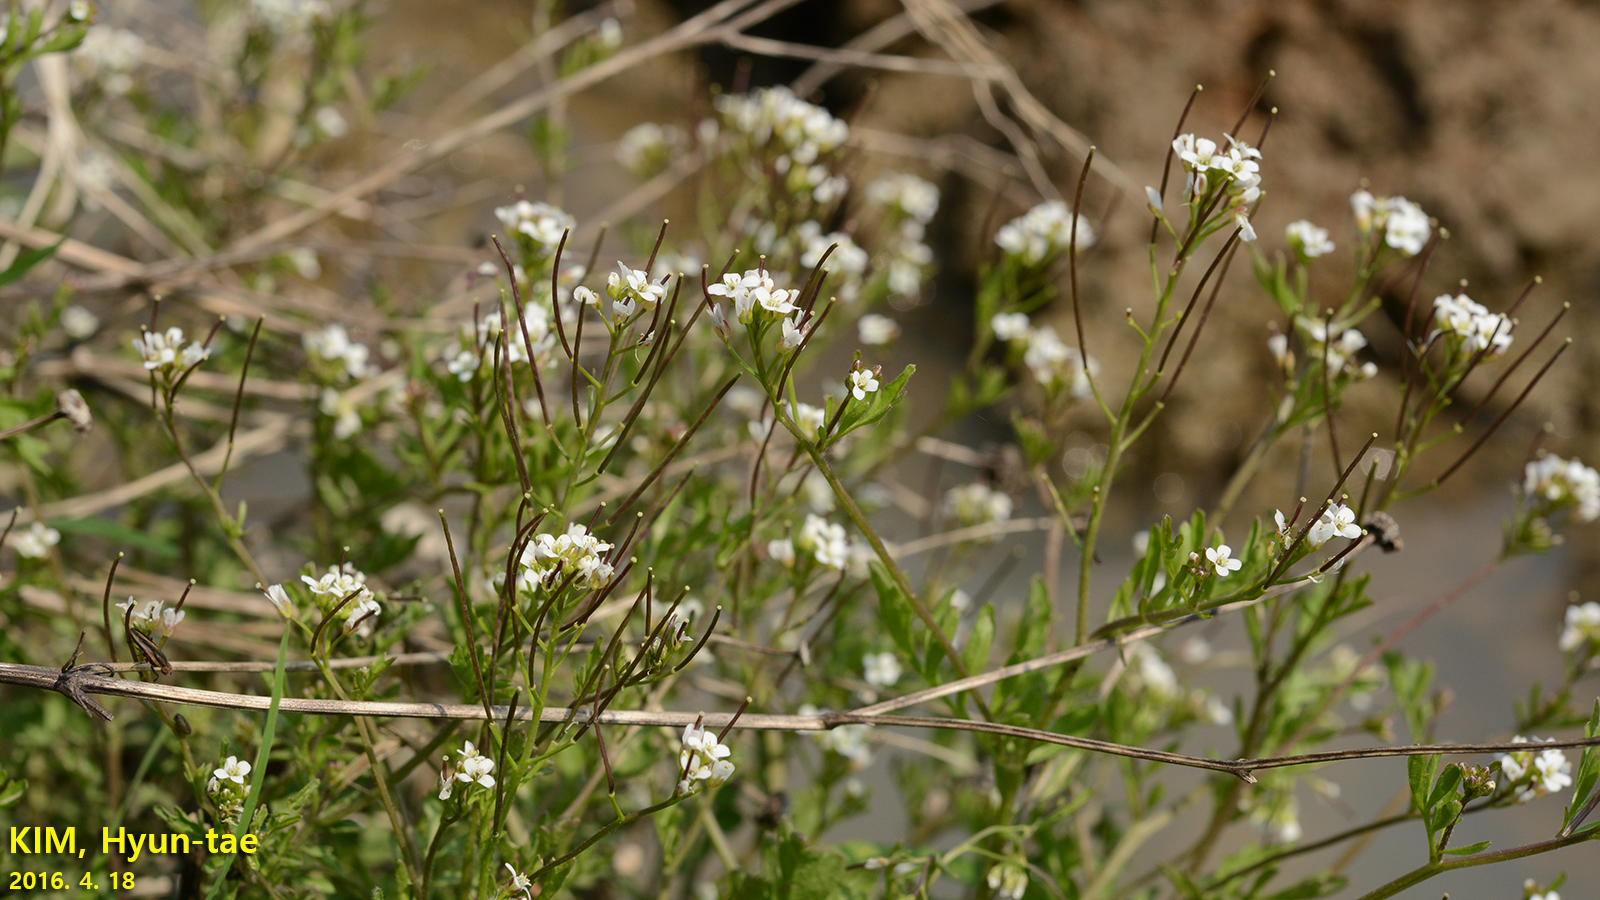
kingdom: Plantae
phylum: Tracheophyta
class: Magnoliopsida
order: Brassicales
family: Brassicaceae
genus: Cardamine
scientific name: Cardamine occulta
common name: Asian wavy bittercress
